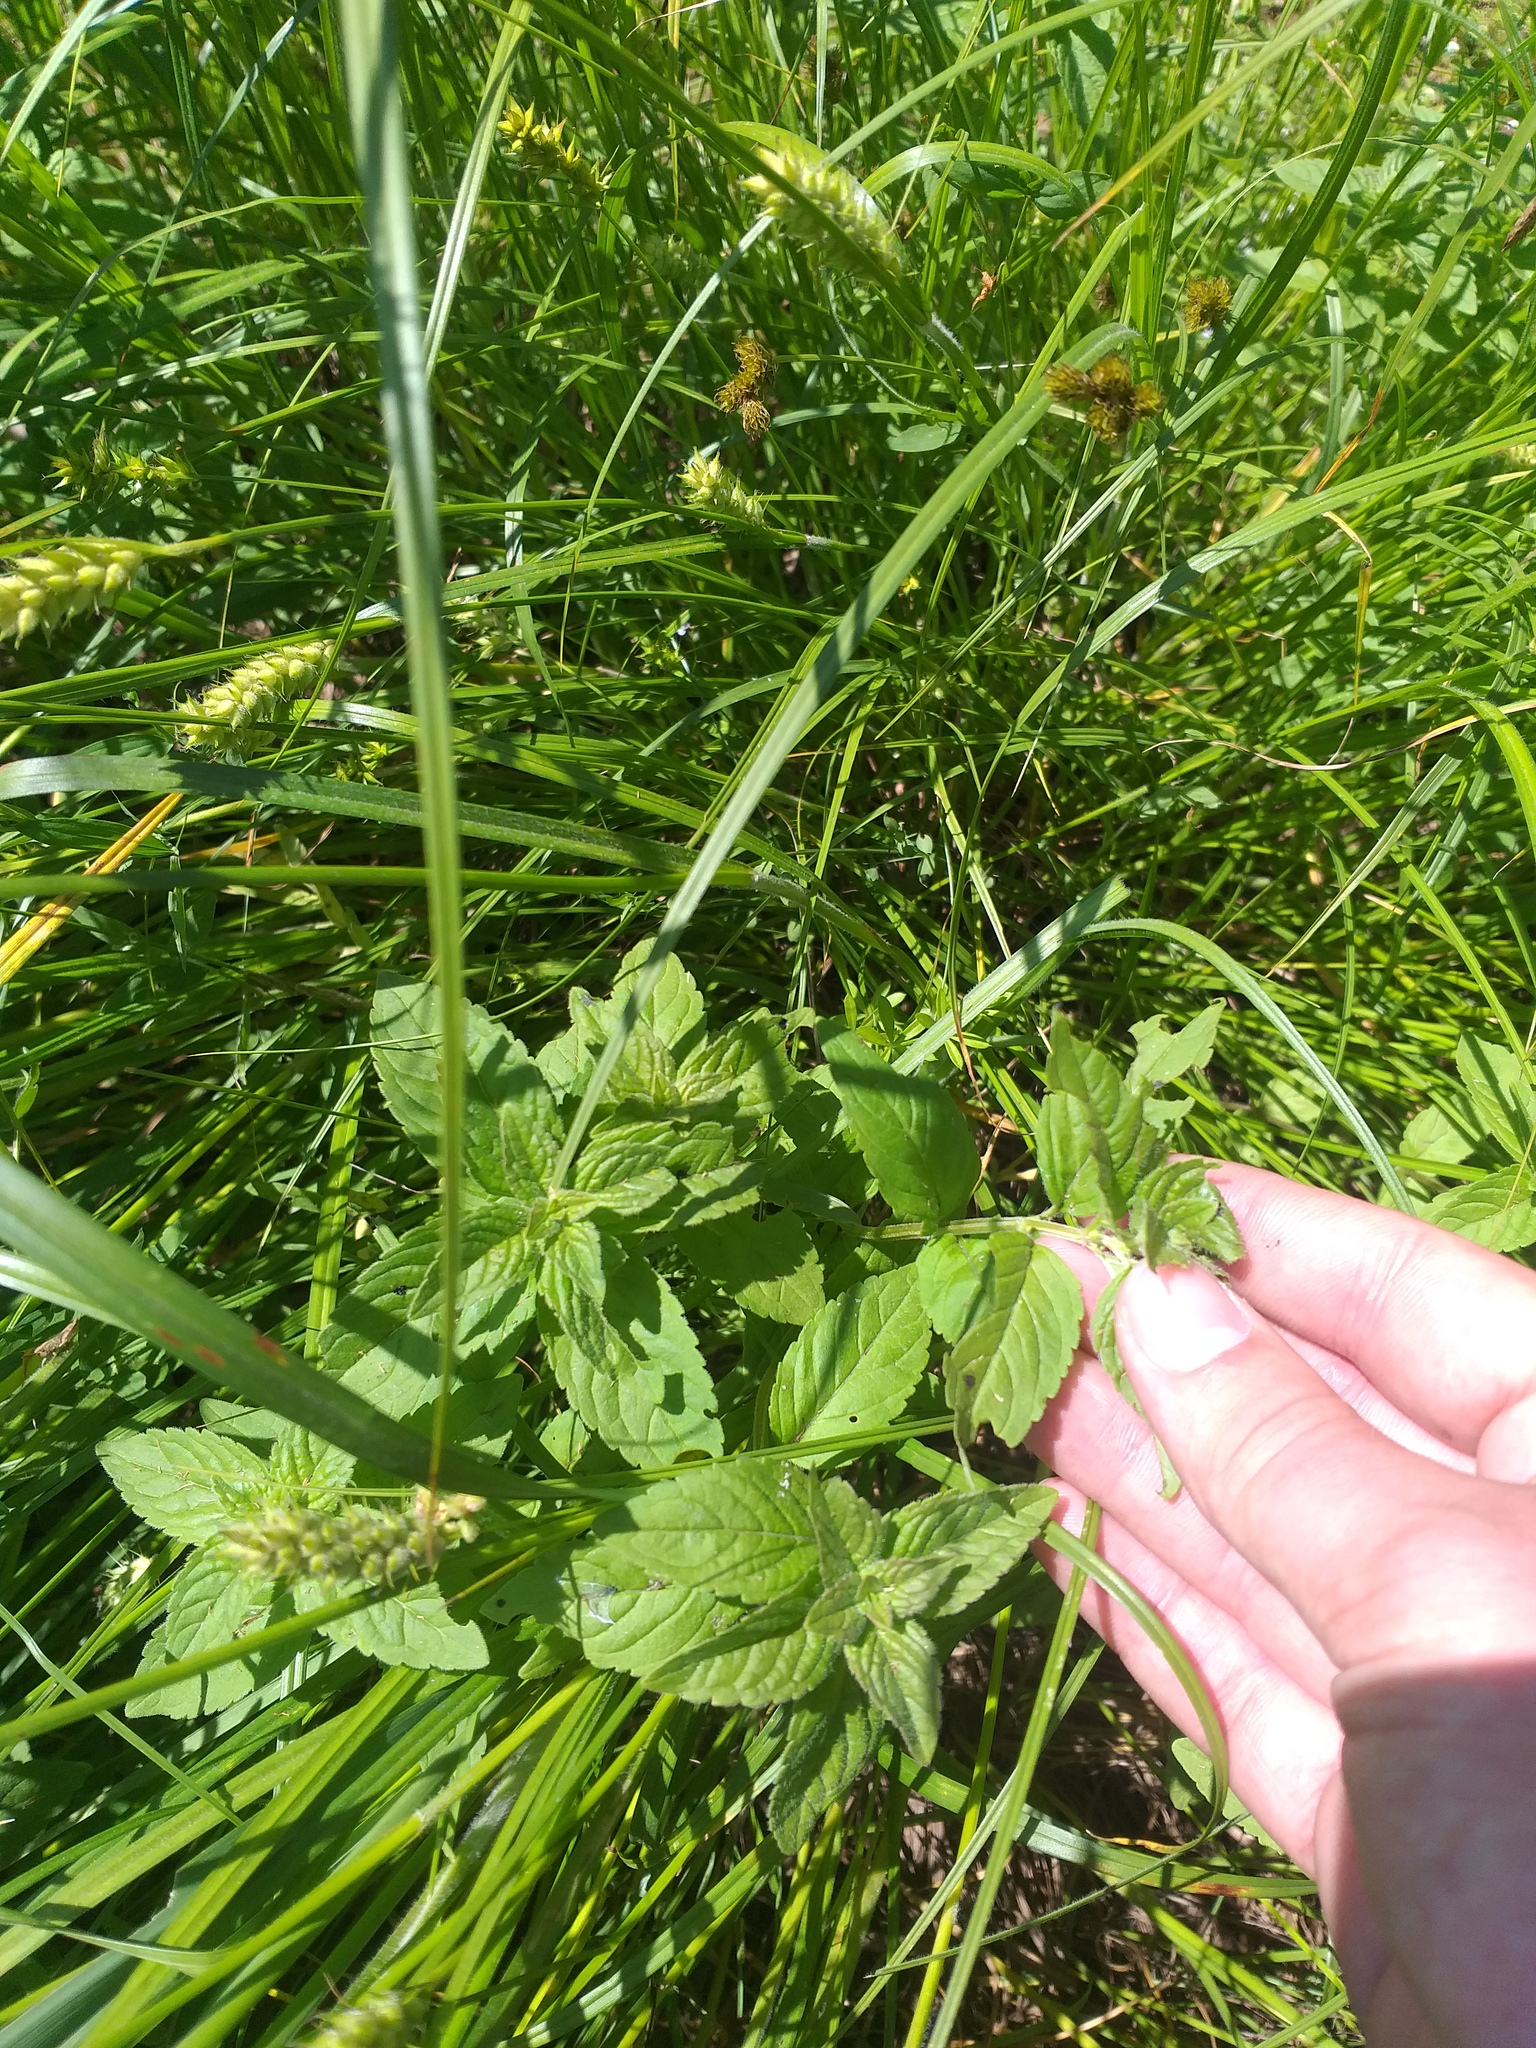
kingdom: Plantae
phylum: Tracheophyta
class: Magnoliopsida
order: Lamiales
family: Lamiaceae
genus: Mentha
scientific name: Mentha arvensis
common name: Corn mint
